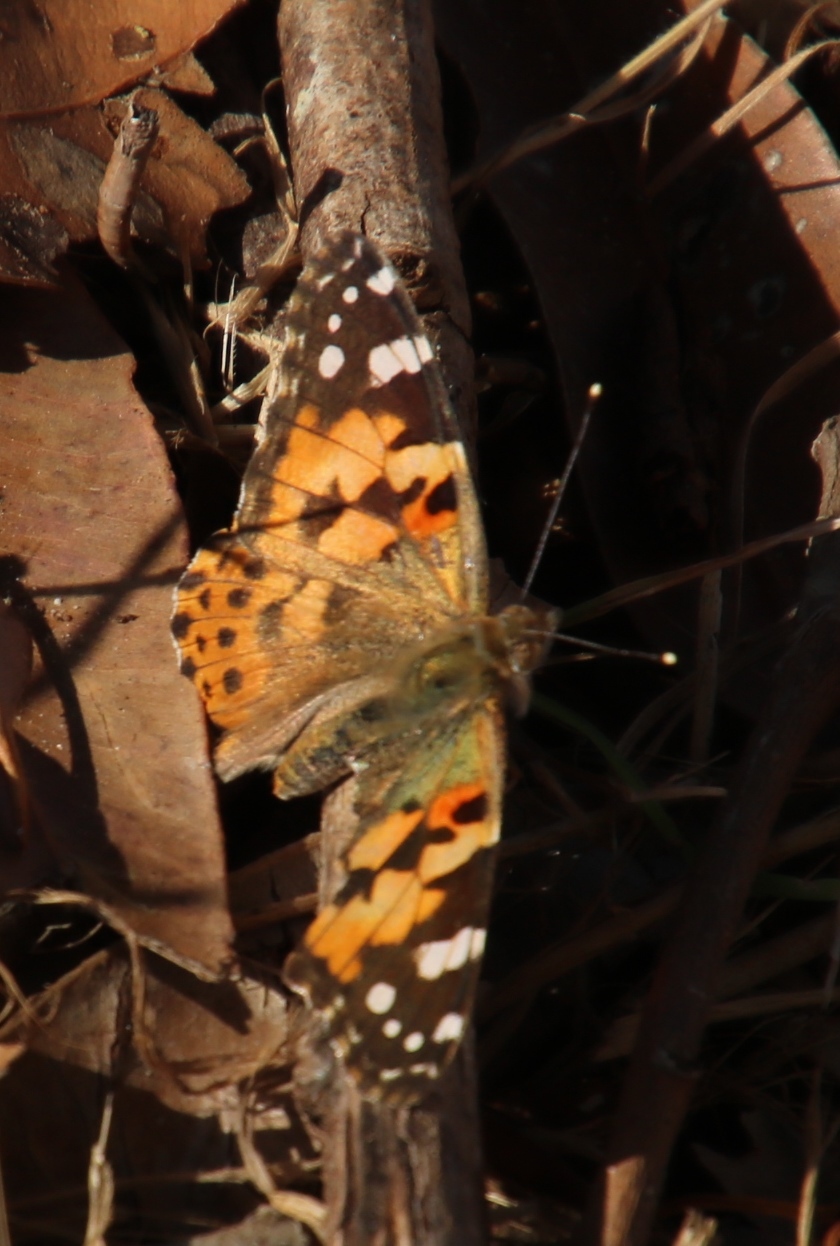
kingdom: Animalia
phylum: Arthropoda
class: Insecta
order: Lepidoptera
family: Nymphalidae
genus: Vanessa
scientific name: Vanessa cardui
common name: Painted lady
